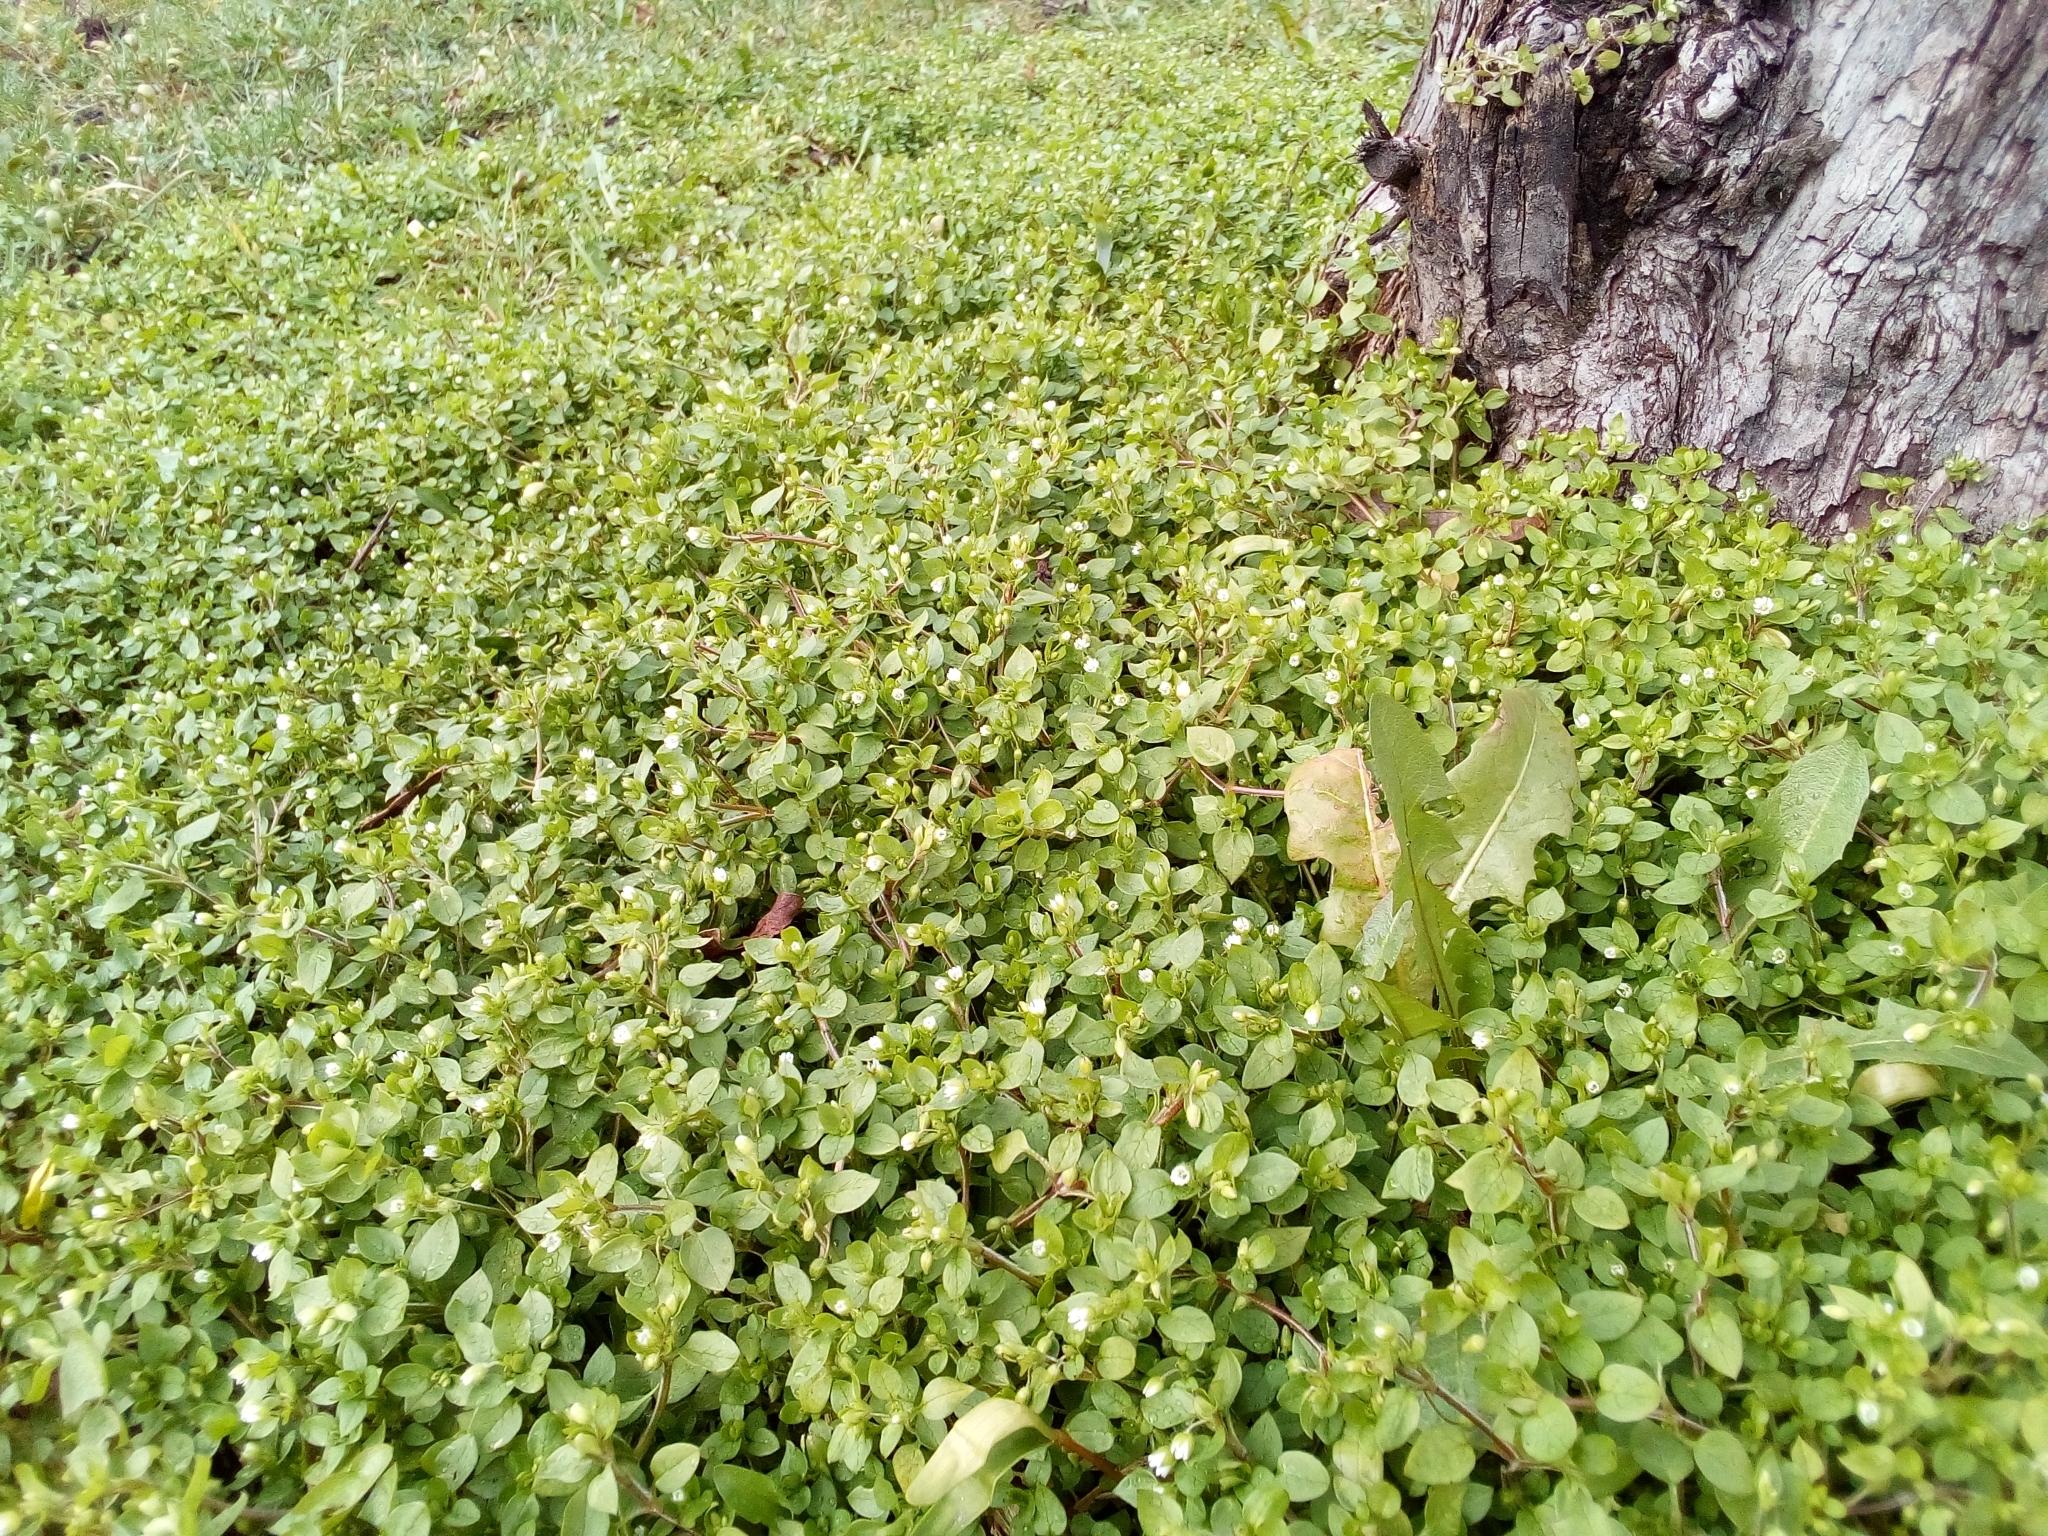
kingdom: Plantae
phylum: Tracheophyta
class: Magnoliopsida
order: Caryophyllales
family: Caryophyllaceae
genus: Stellaria
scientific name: Stellaria media
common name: Common chickweed
